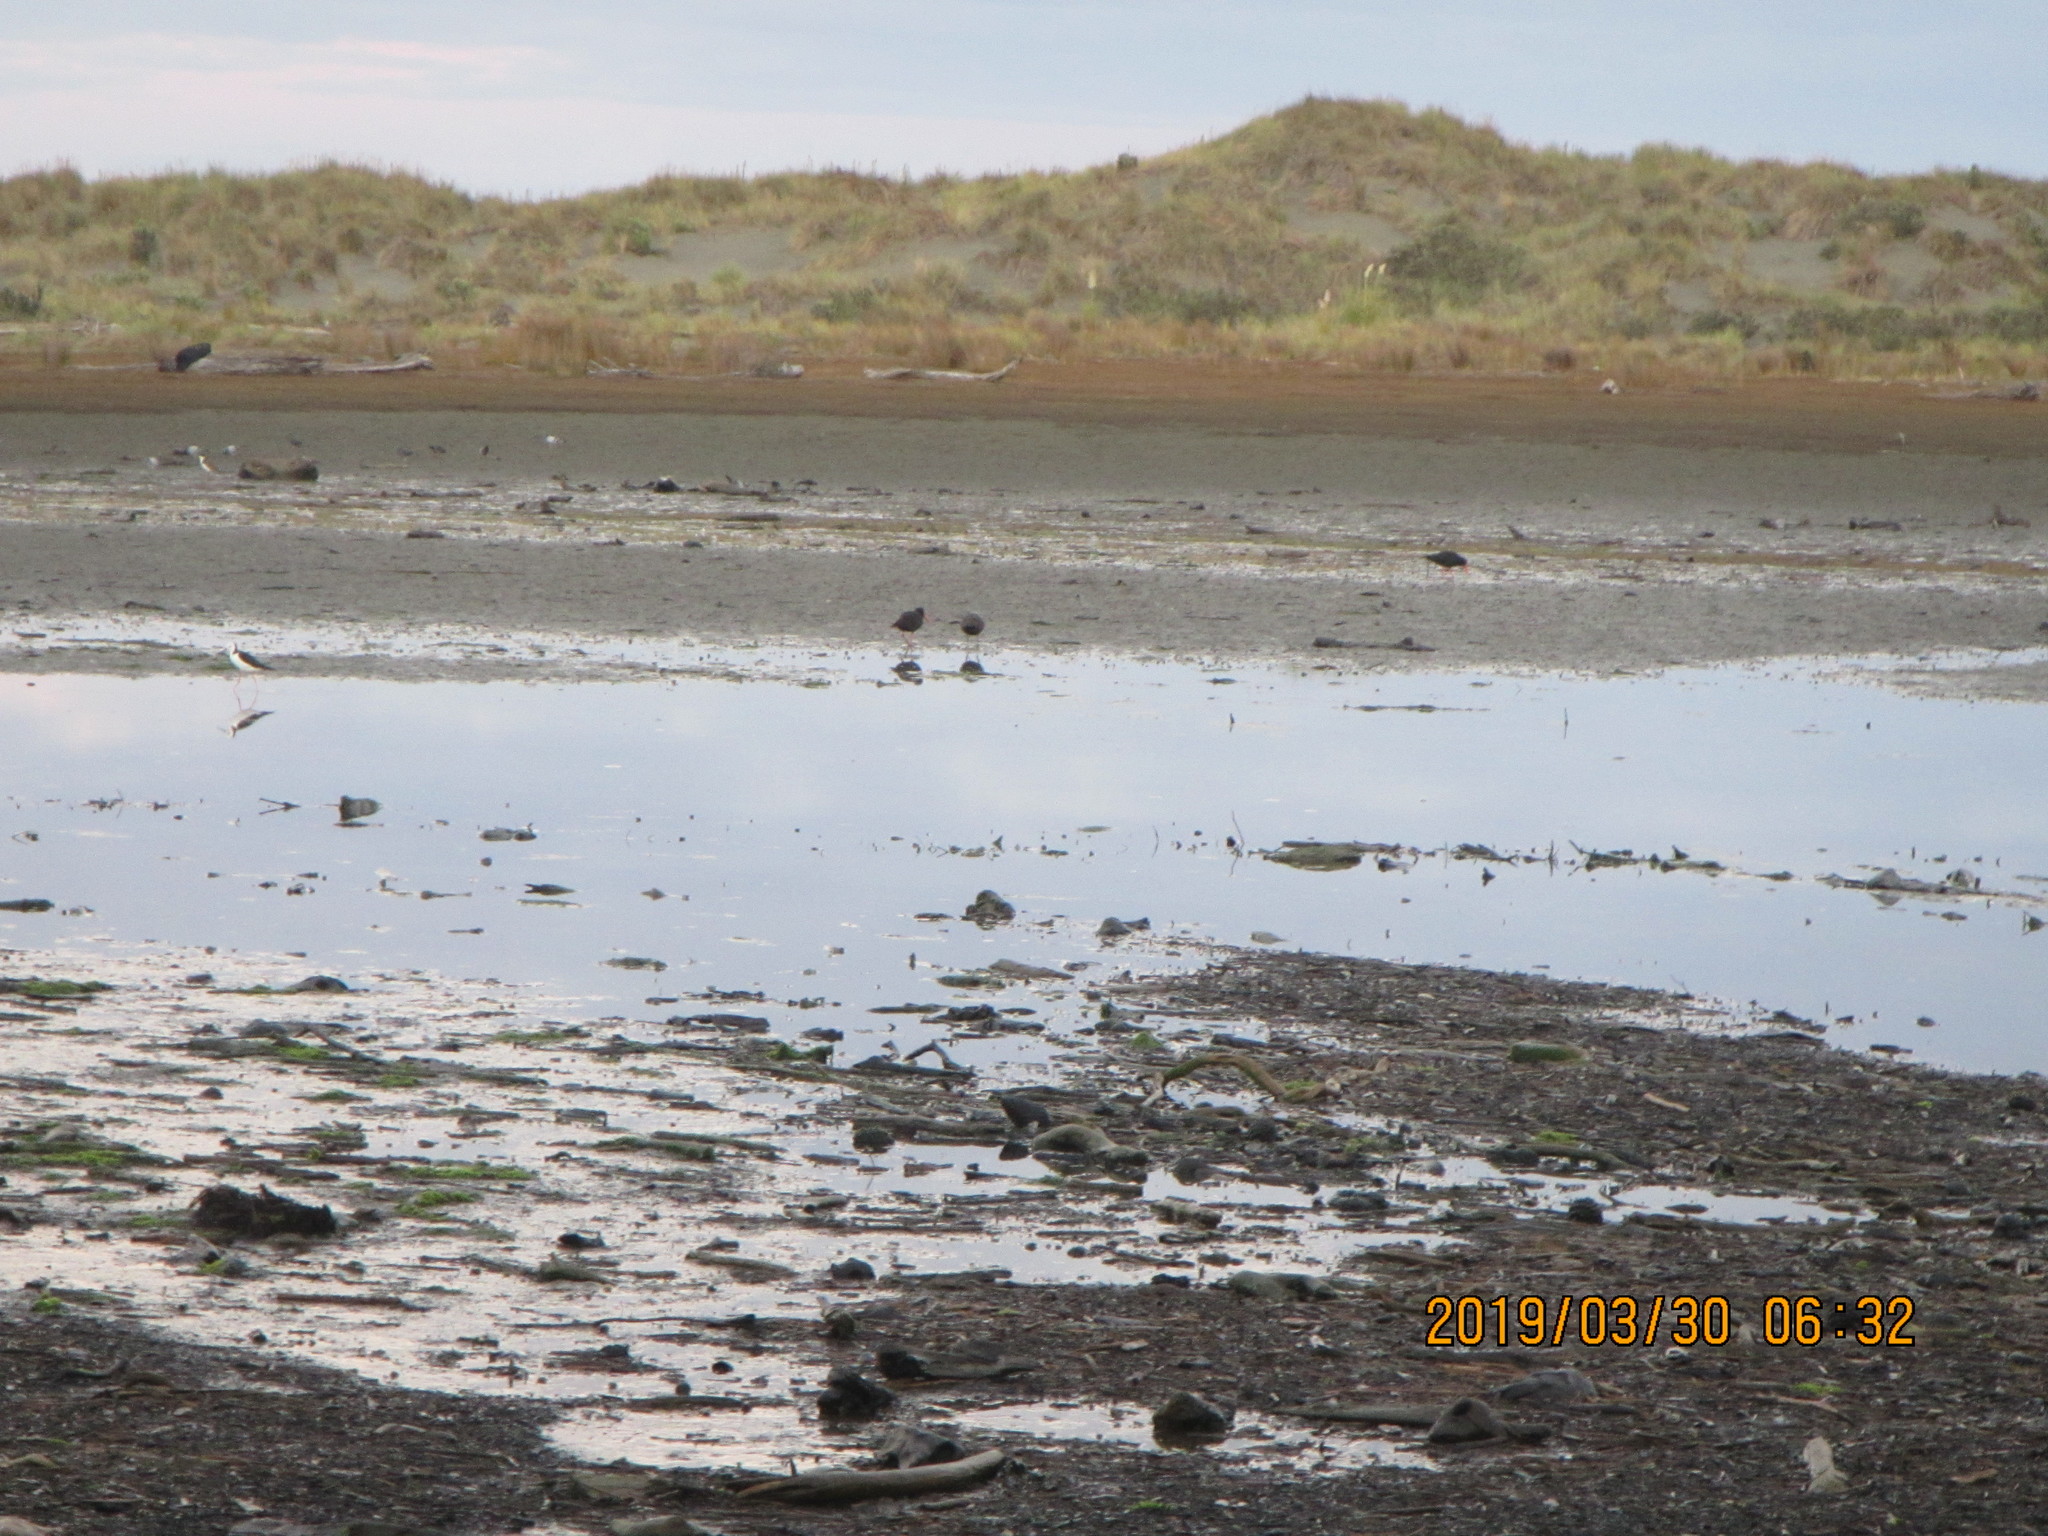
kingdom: Animalia
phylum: Chordata
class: Aves
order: Charadriiformes
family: Haematopodidae
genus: Haematopus
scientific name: Haematopus unicolor
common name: Variable oystercatcher
